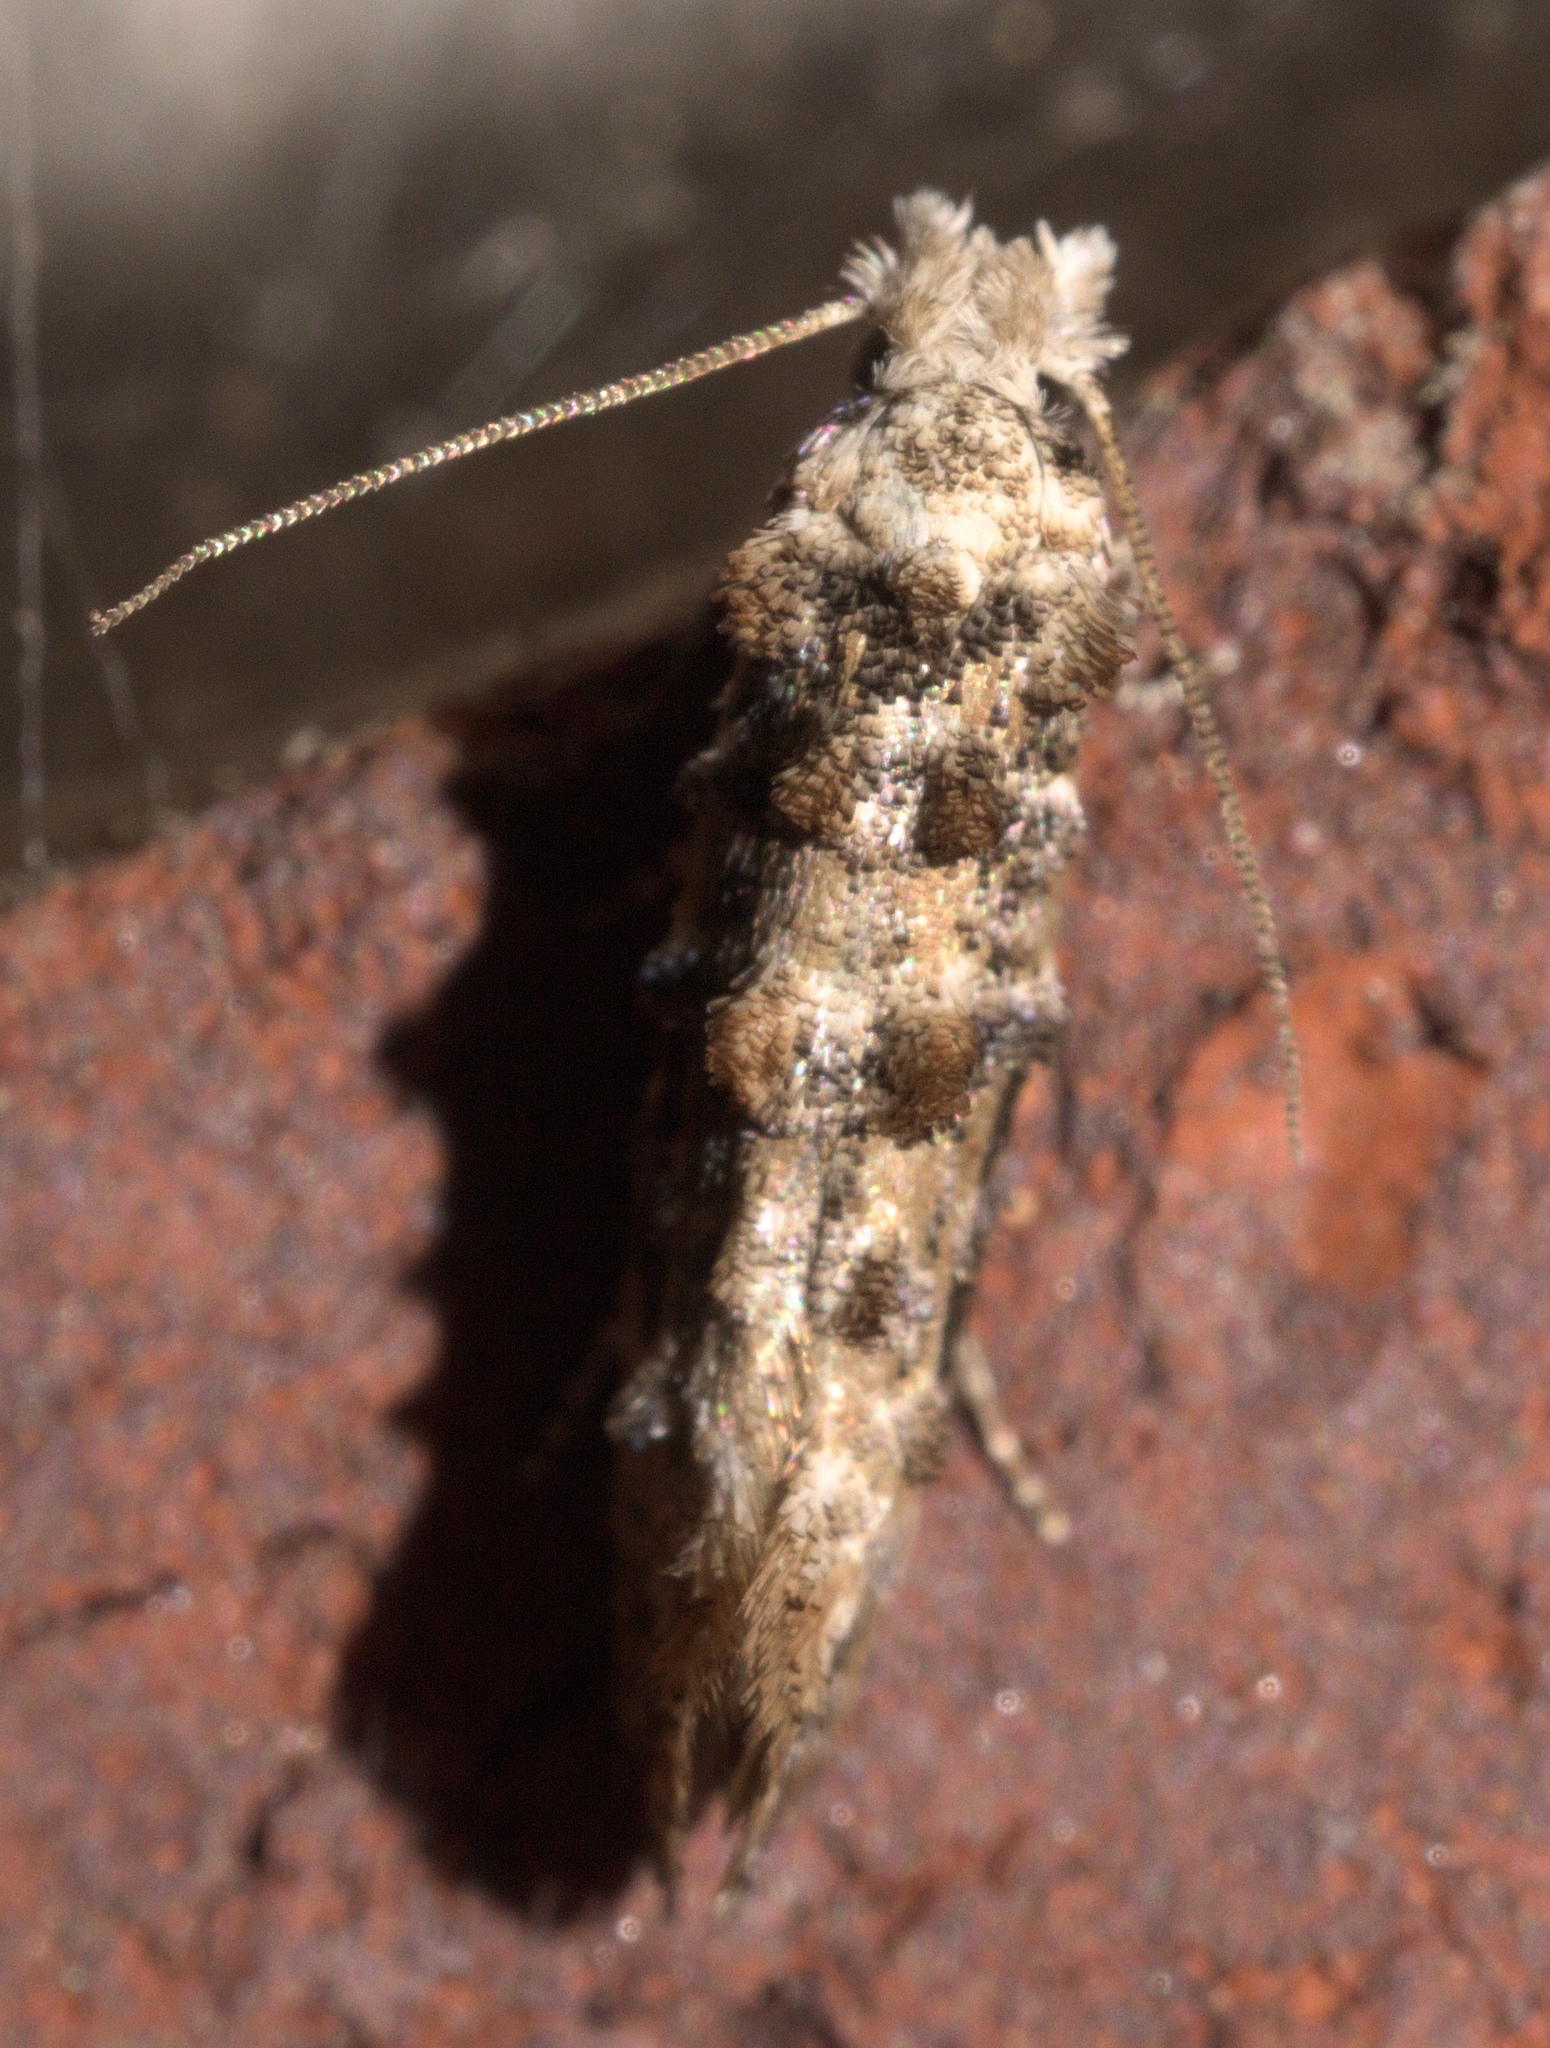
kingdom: Animalia
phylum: Arthropoda
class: Insecta
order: Lepidoptera
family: Tineidae
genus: Xylesthia
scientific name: Xylesthia pruniramiella
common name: Clemens' bark moth
